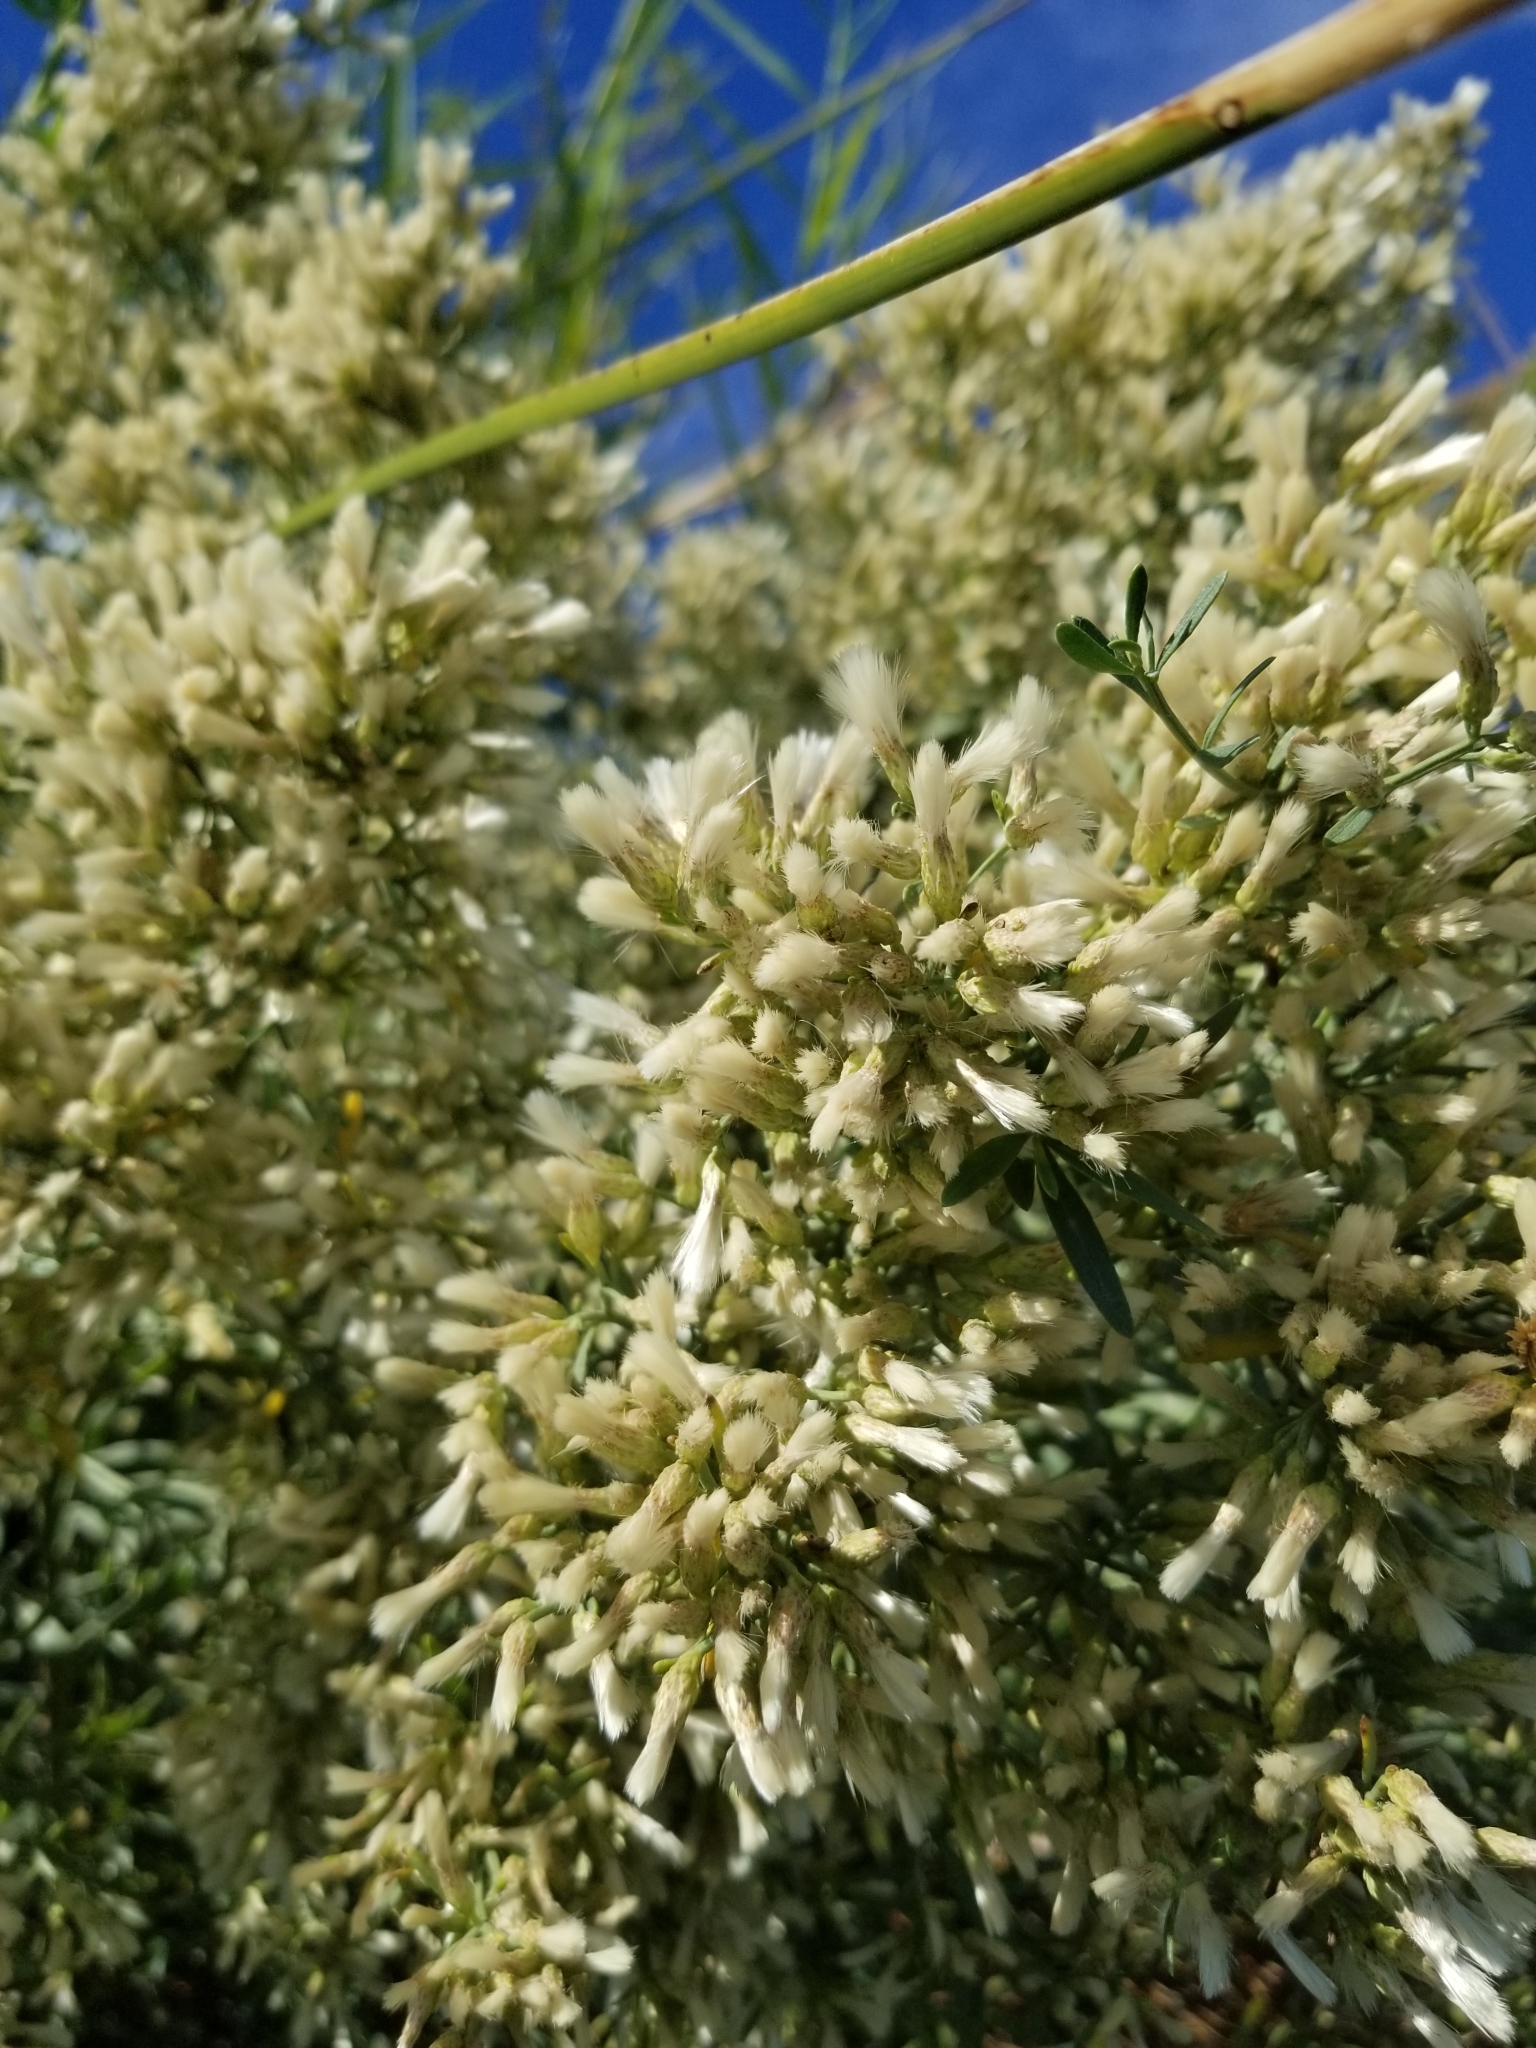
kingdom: Plantae
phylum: Tracheophyta
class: Magnoliopsida
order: Asterales
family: Asteraceae
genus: Baccharis
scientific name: Baccharis sarothroides
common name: Desert-broom
